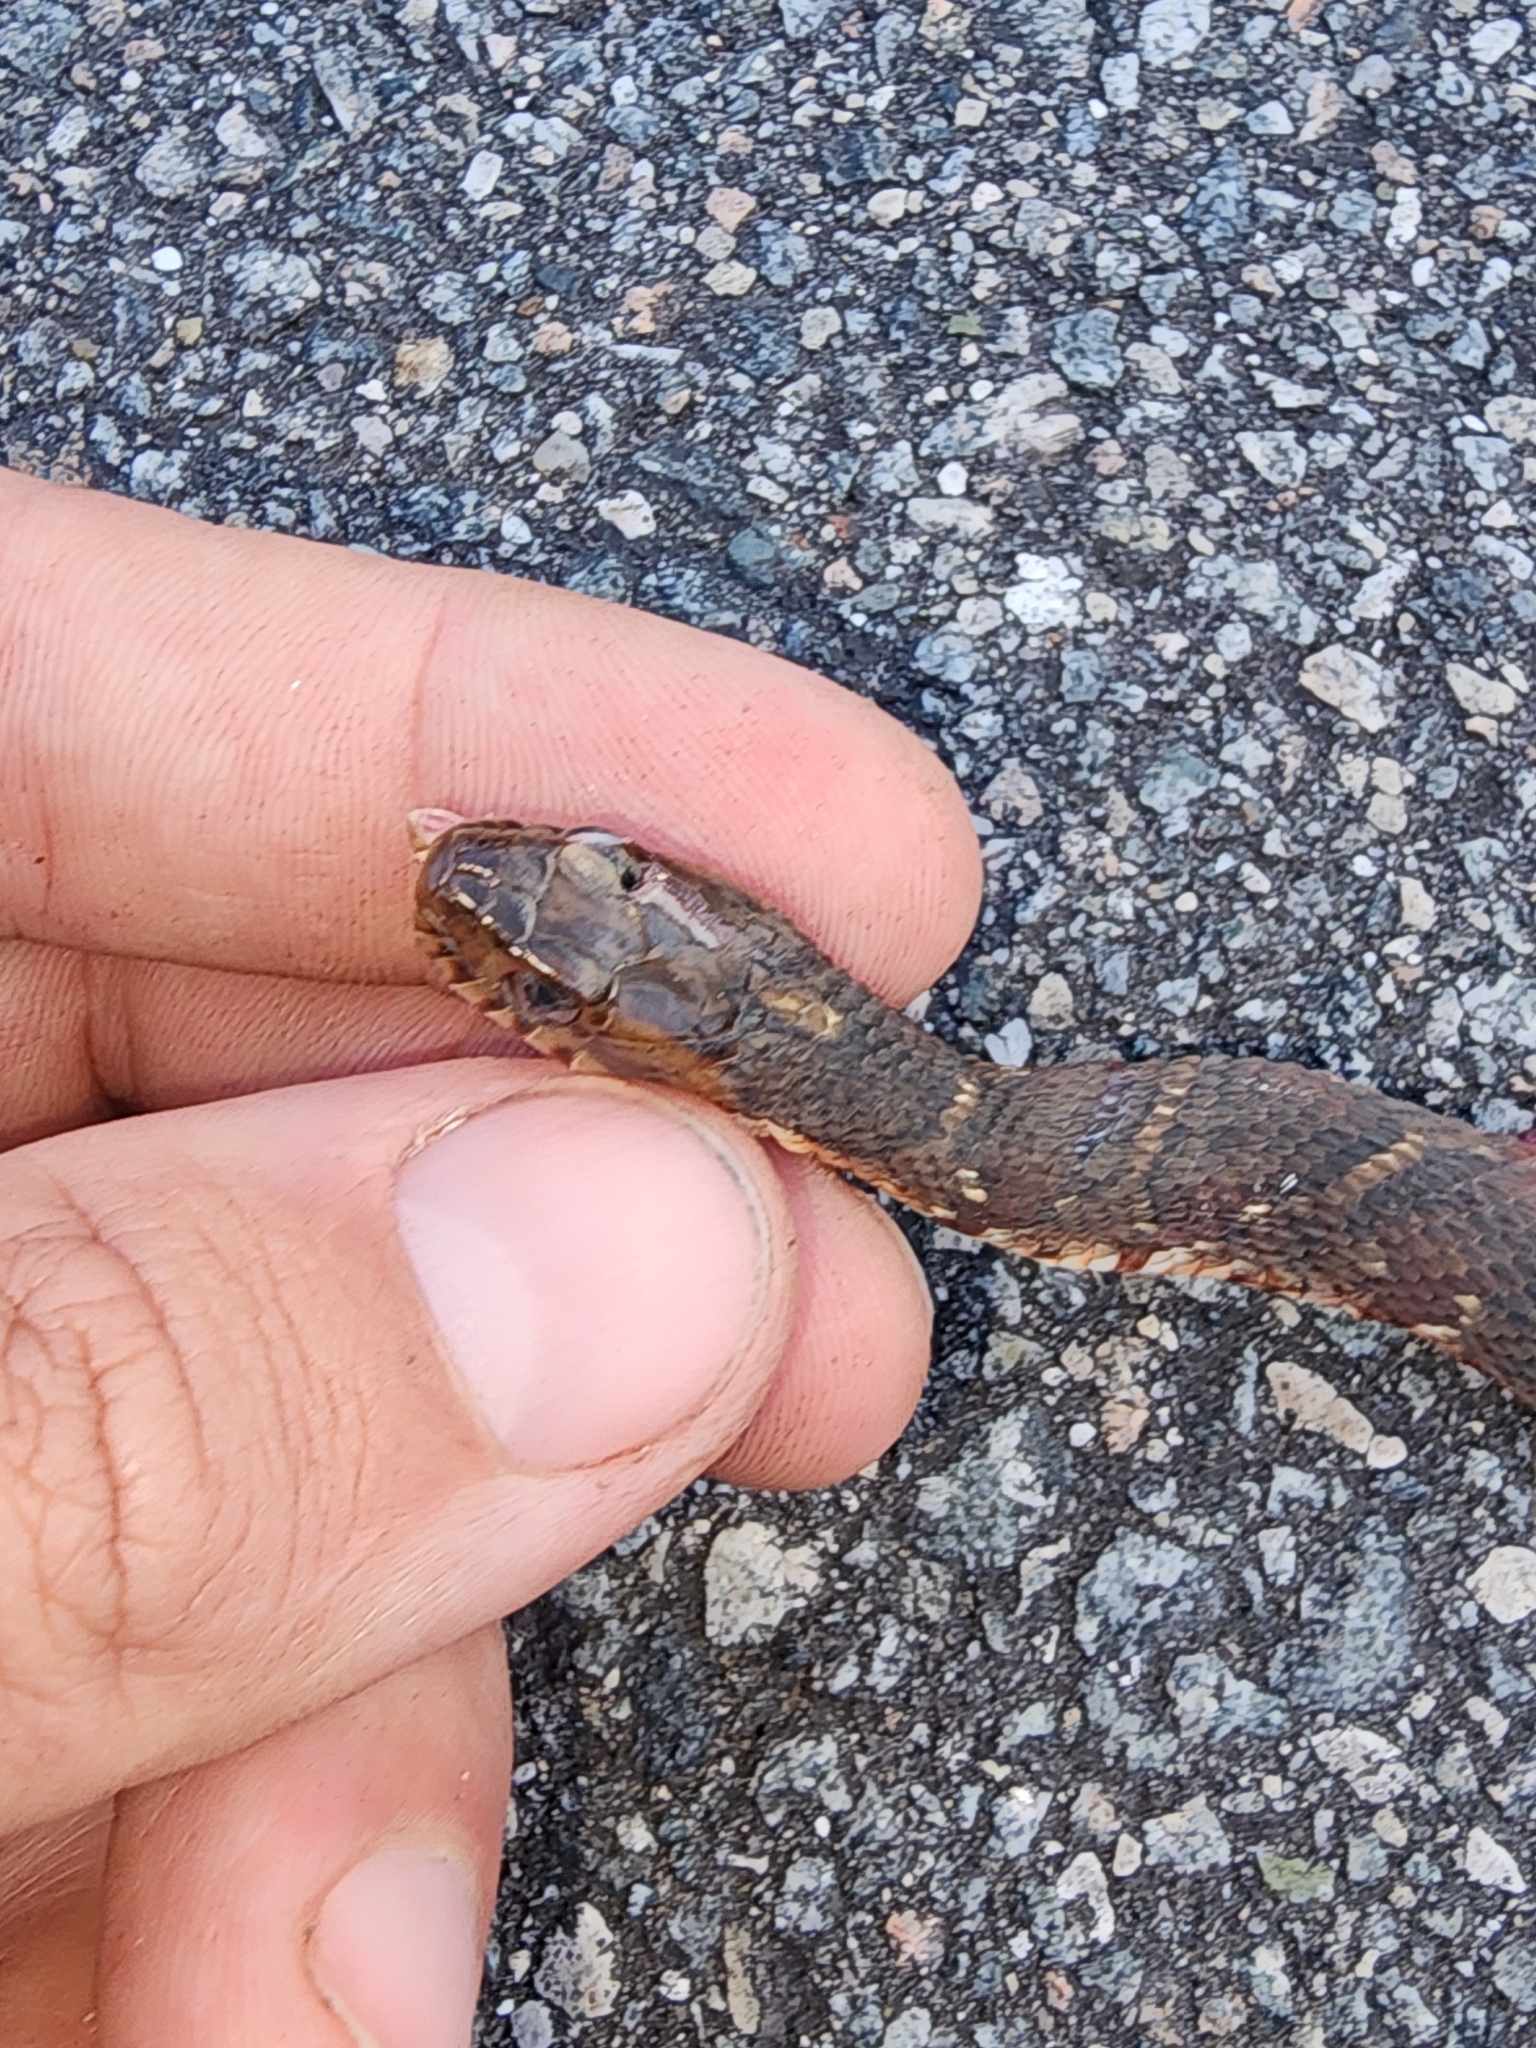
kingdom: Animalia
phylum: Chordata
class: Squamata
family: Colubridae
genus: Nerodia
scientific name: Nerodia fasciata
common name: Southern water snake
